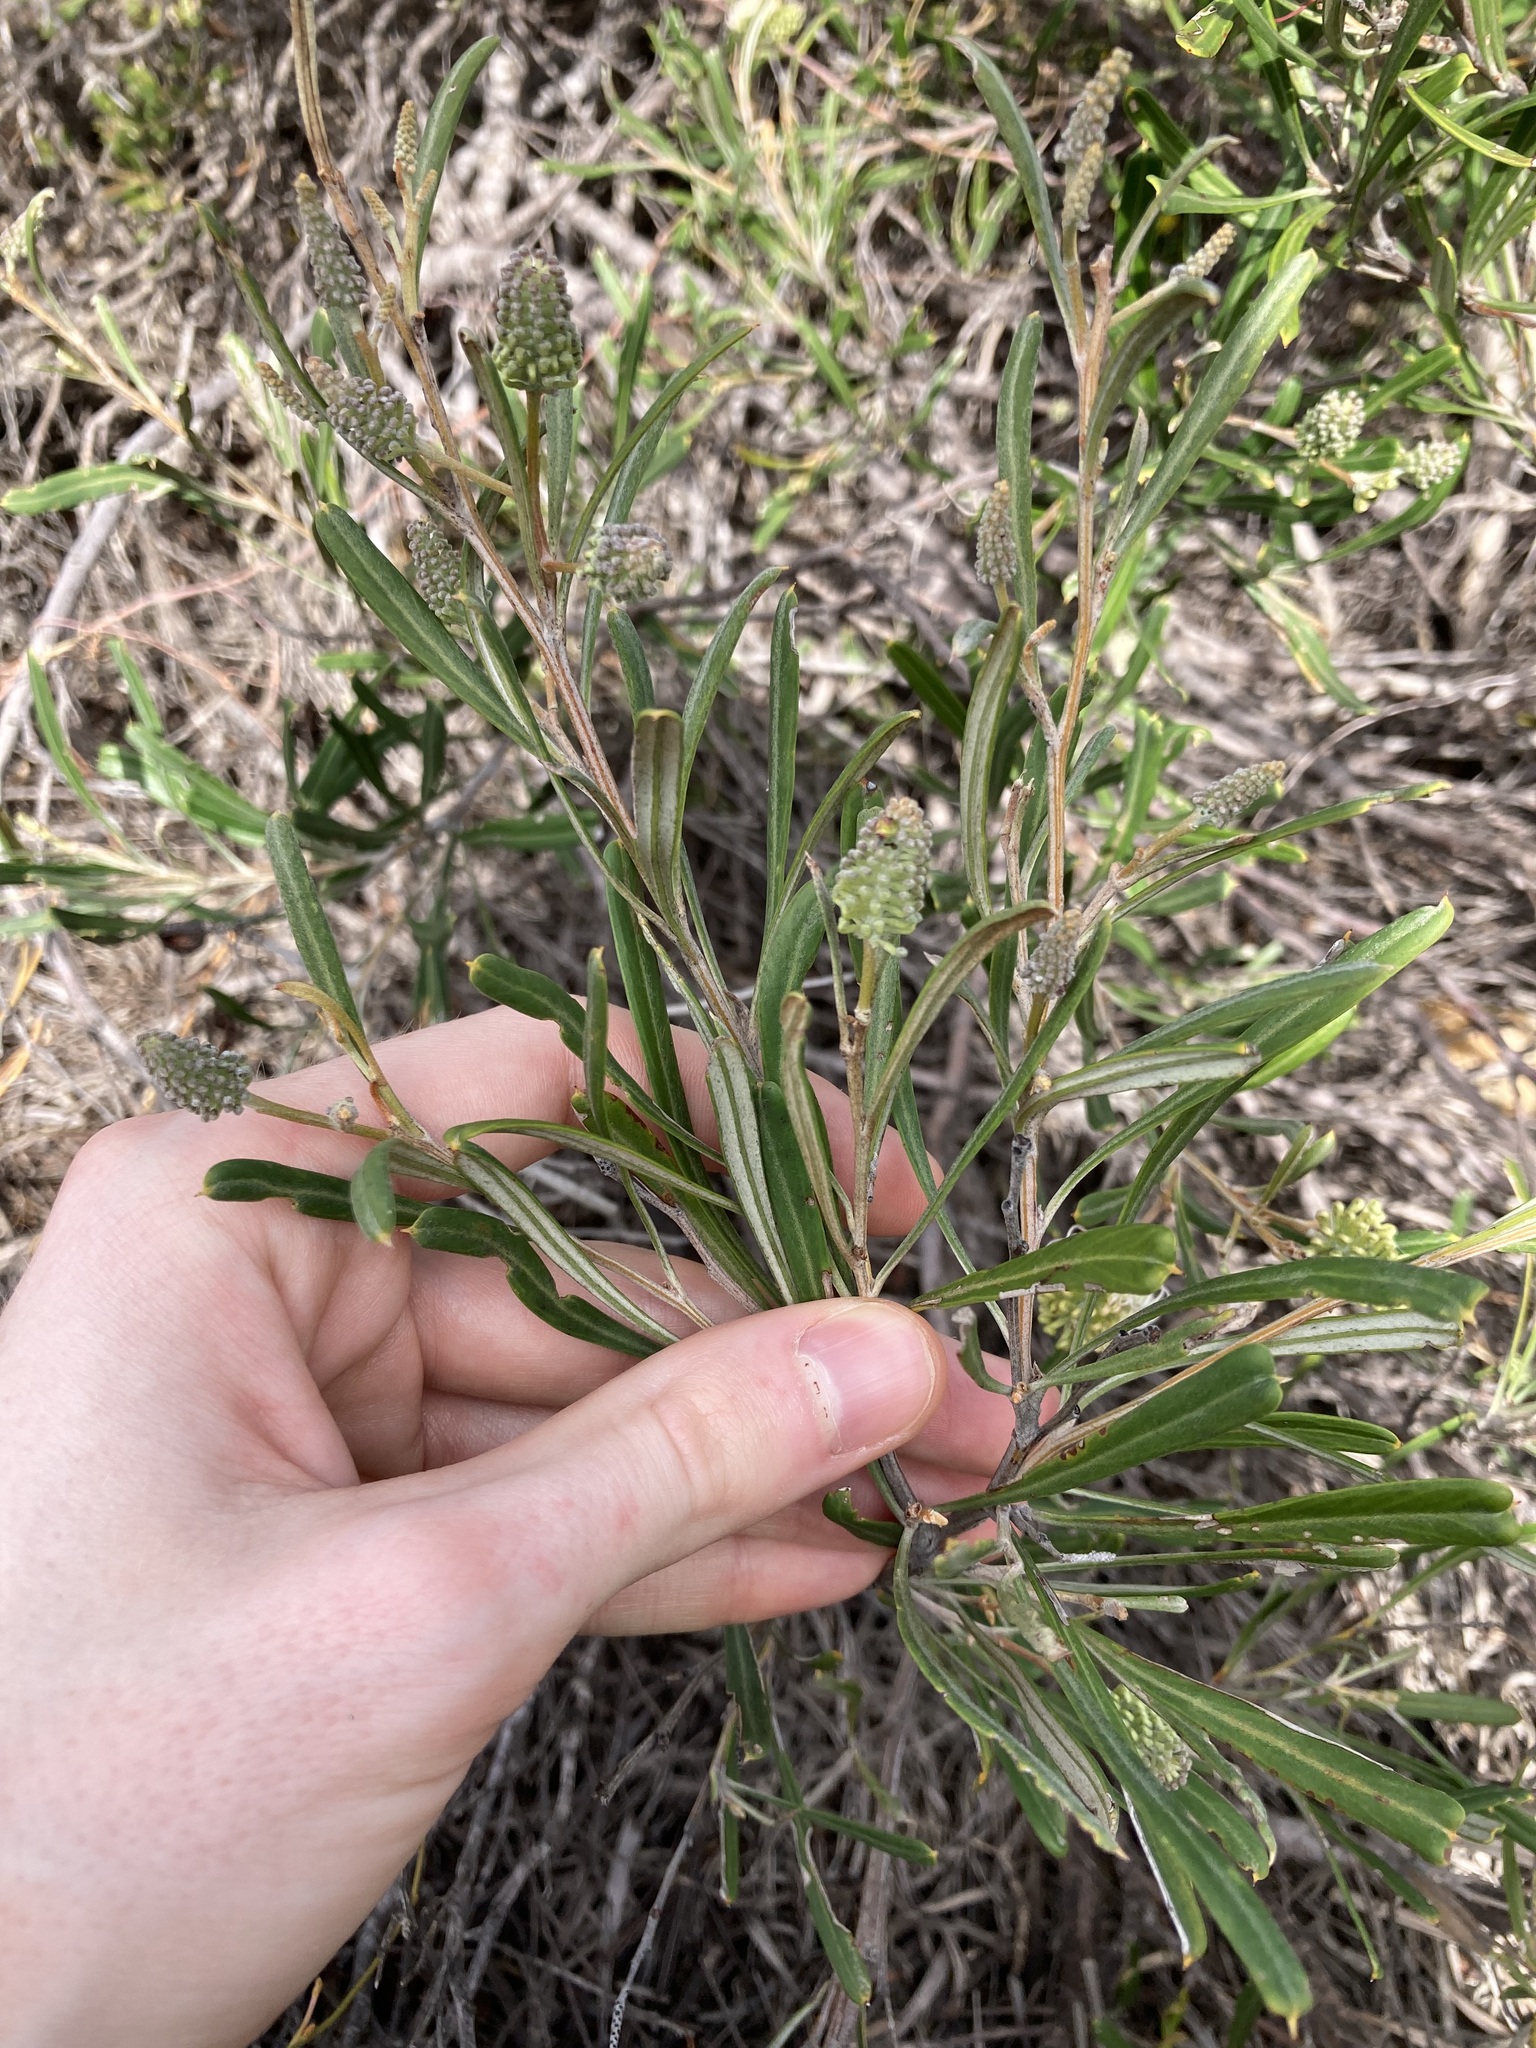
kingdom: Plantae
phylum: Tracheophyta
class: Magnoliopsida
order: Proteales
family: Proteaceae
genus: Grevillea
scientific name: Grevillea commutata
